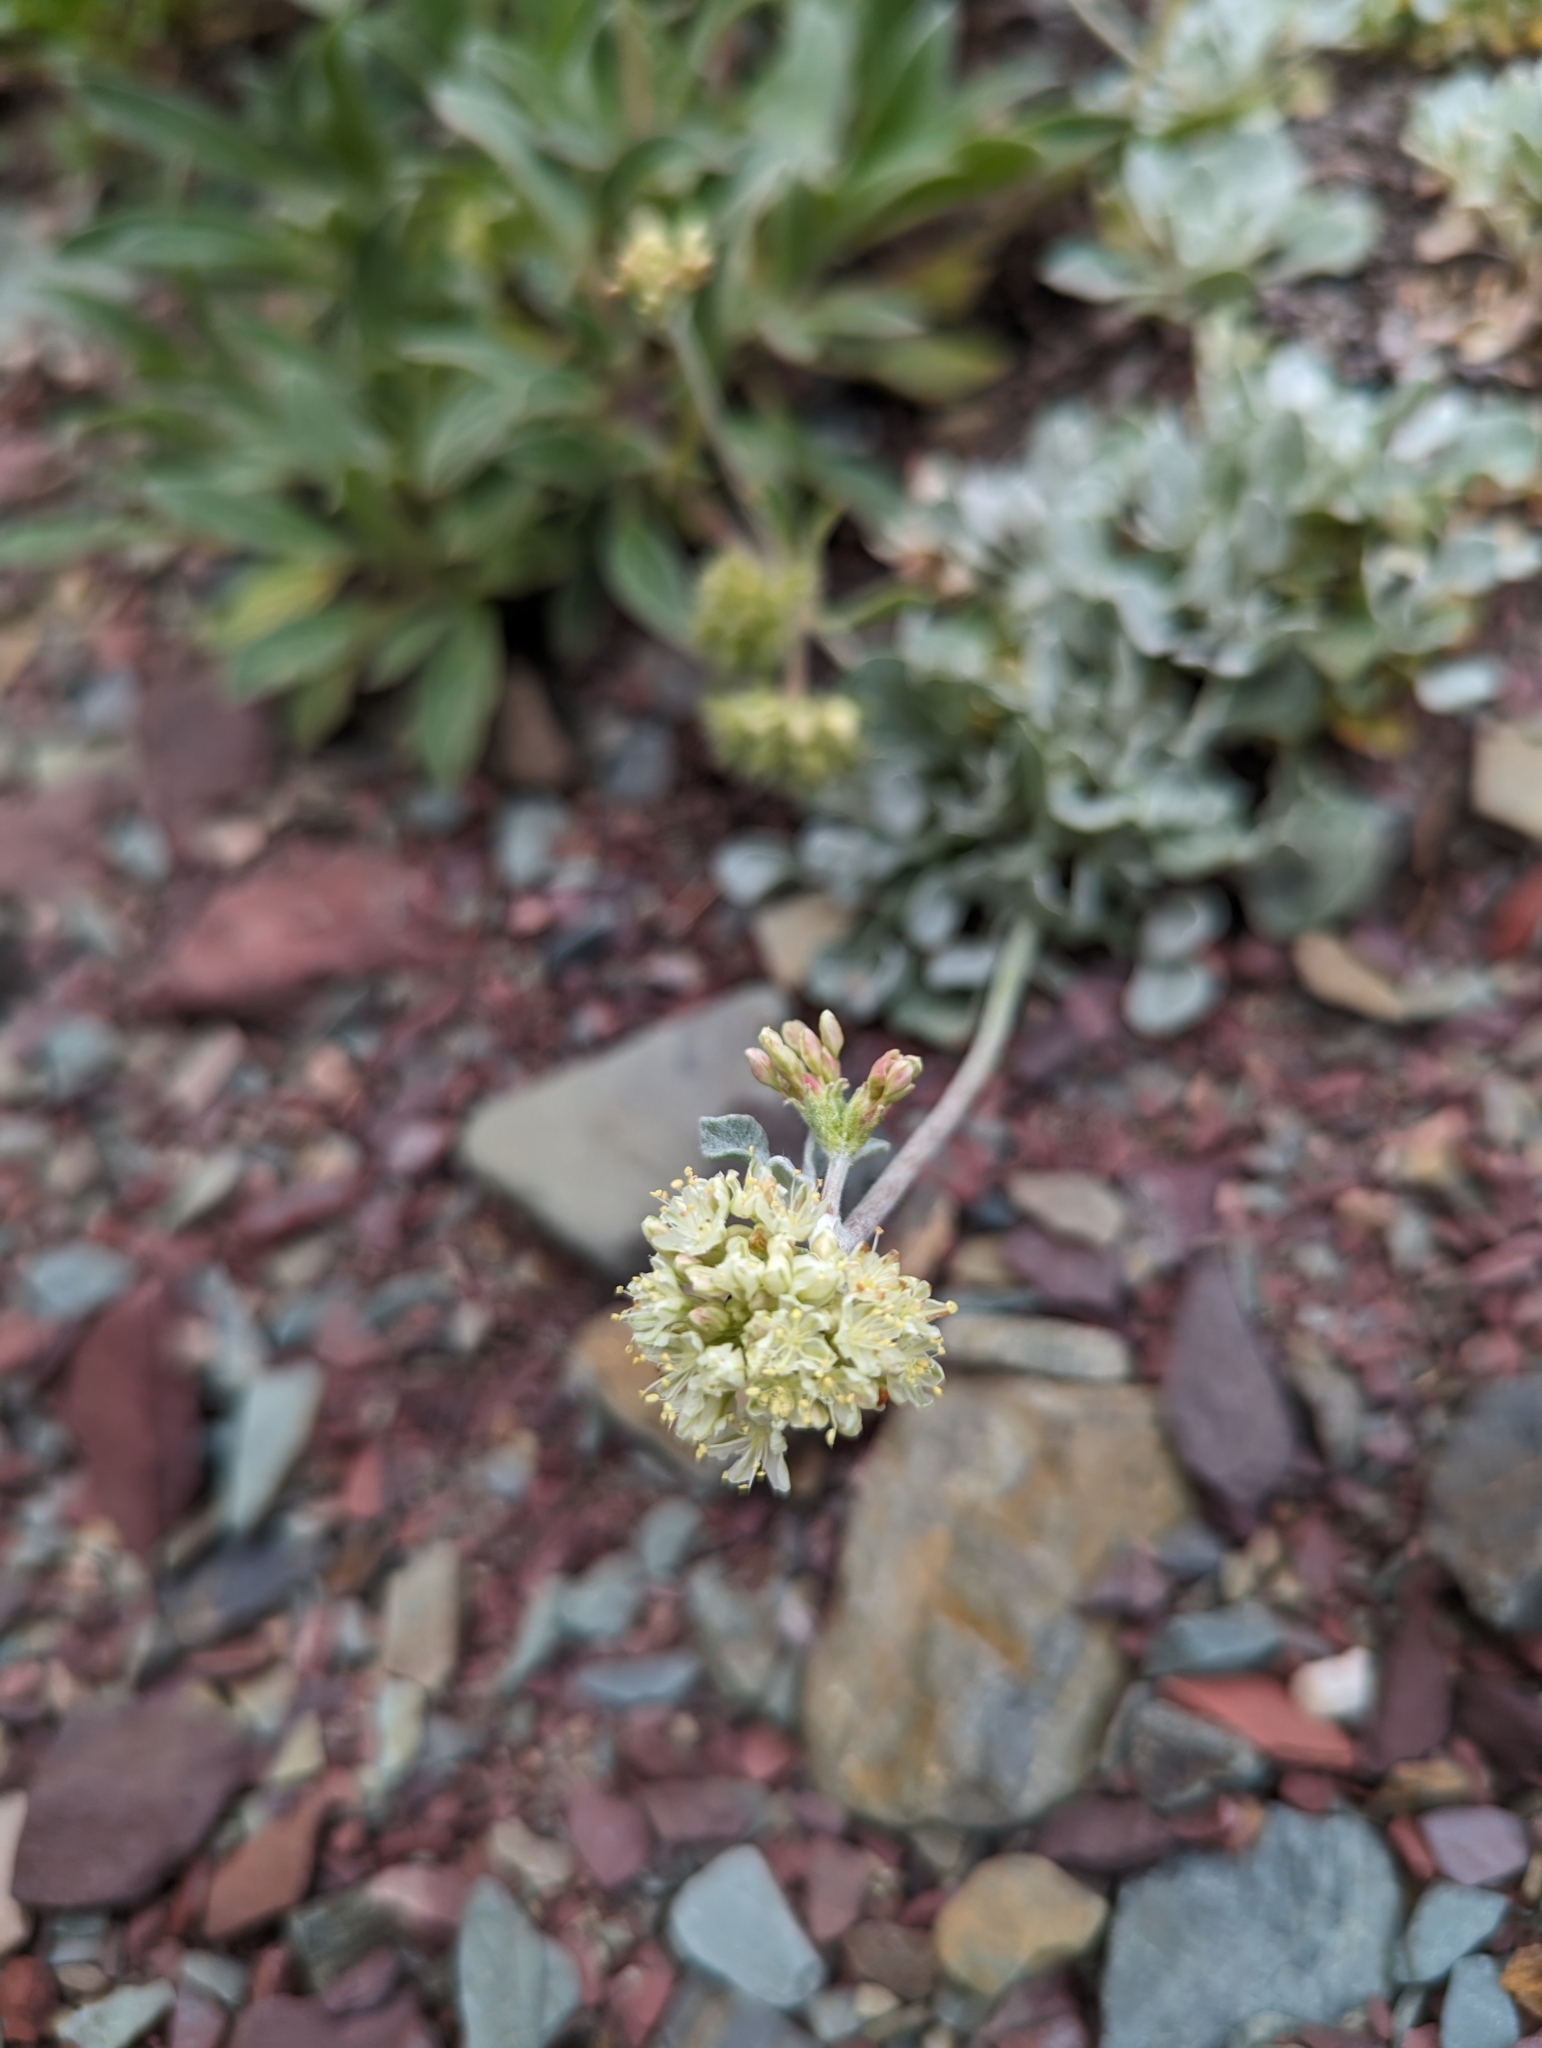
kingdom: Plantae
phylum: Tracheophyta
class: Magnoliopsida
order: Caryophyllales
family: Polygonaceae
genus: Eriogonum
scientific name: Eriogonum ovalifolium
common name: Cushion buckwheat
